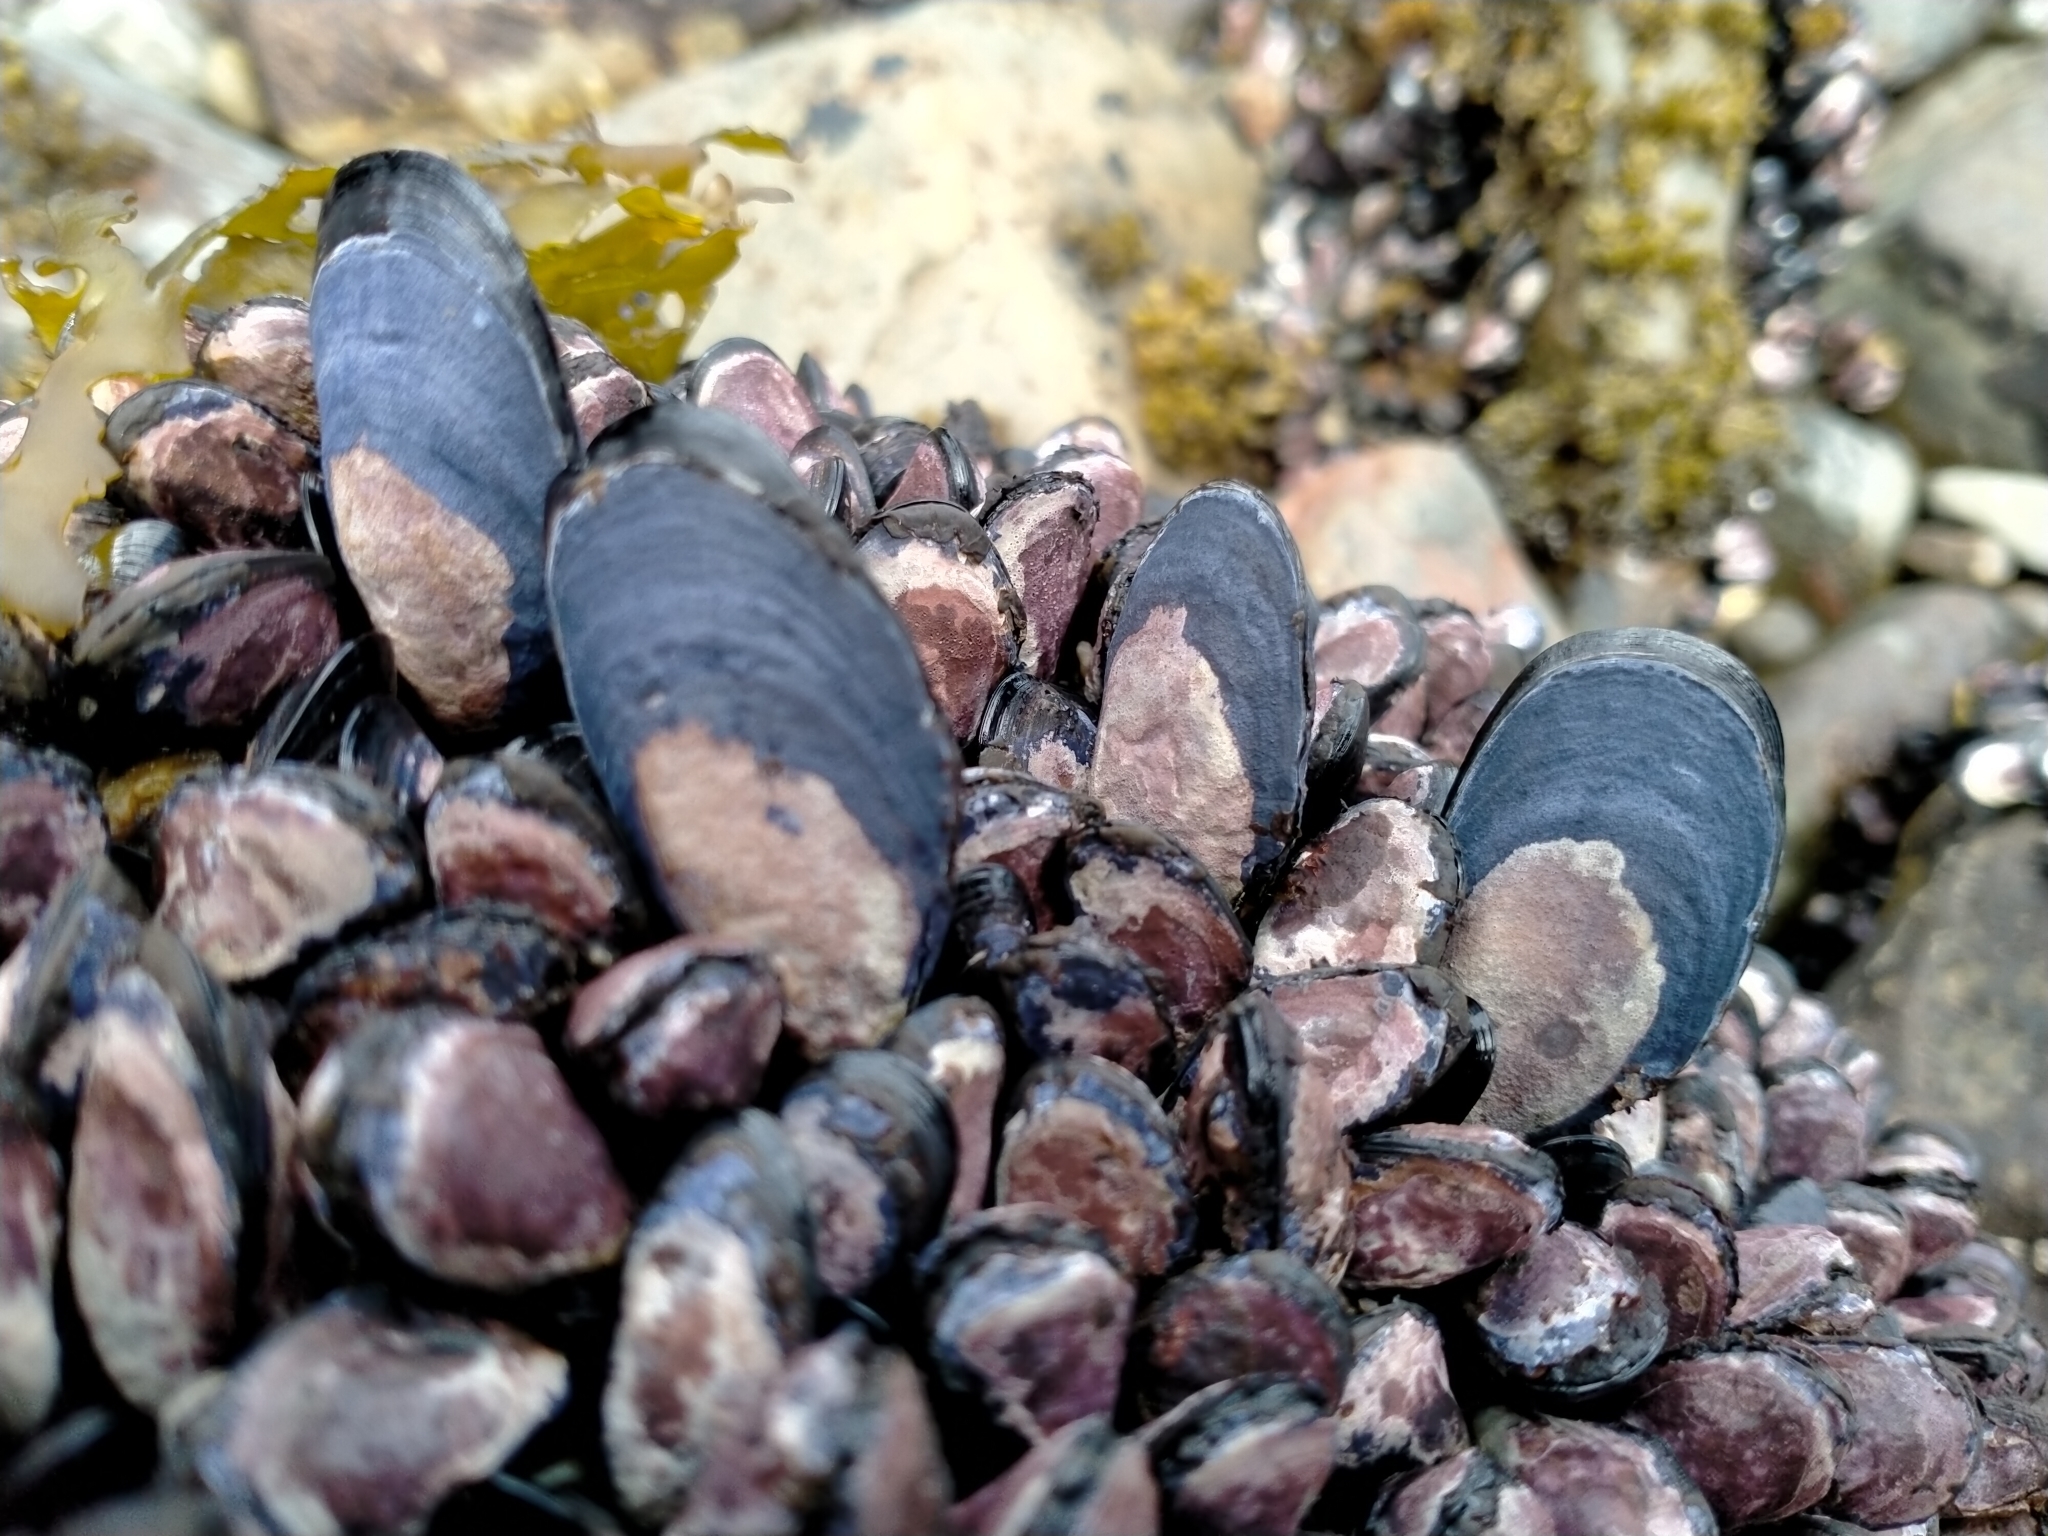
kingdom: Animalia
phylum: Mollusca
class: Bivalvia
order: Mytilida
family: Mytilidae
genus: Mytilus
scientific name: Mytilus planulatus
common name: Australian mussel
